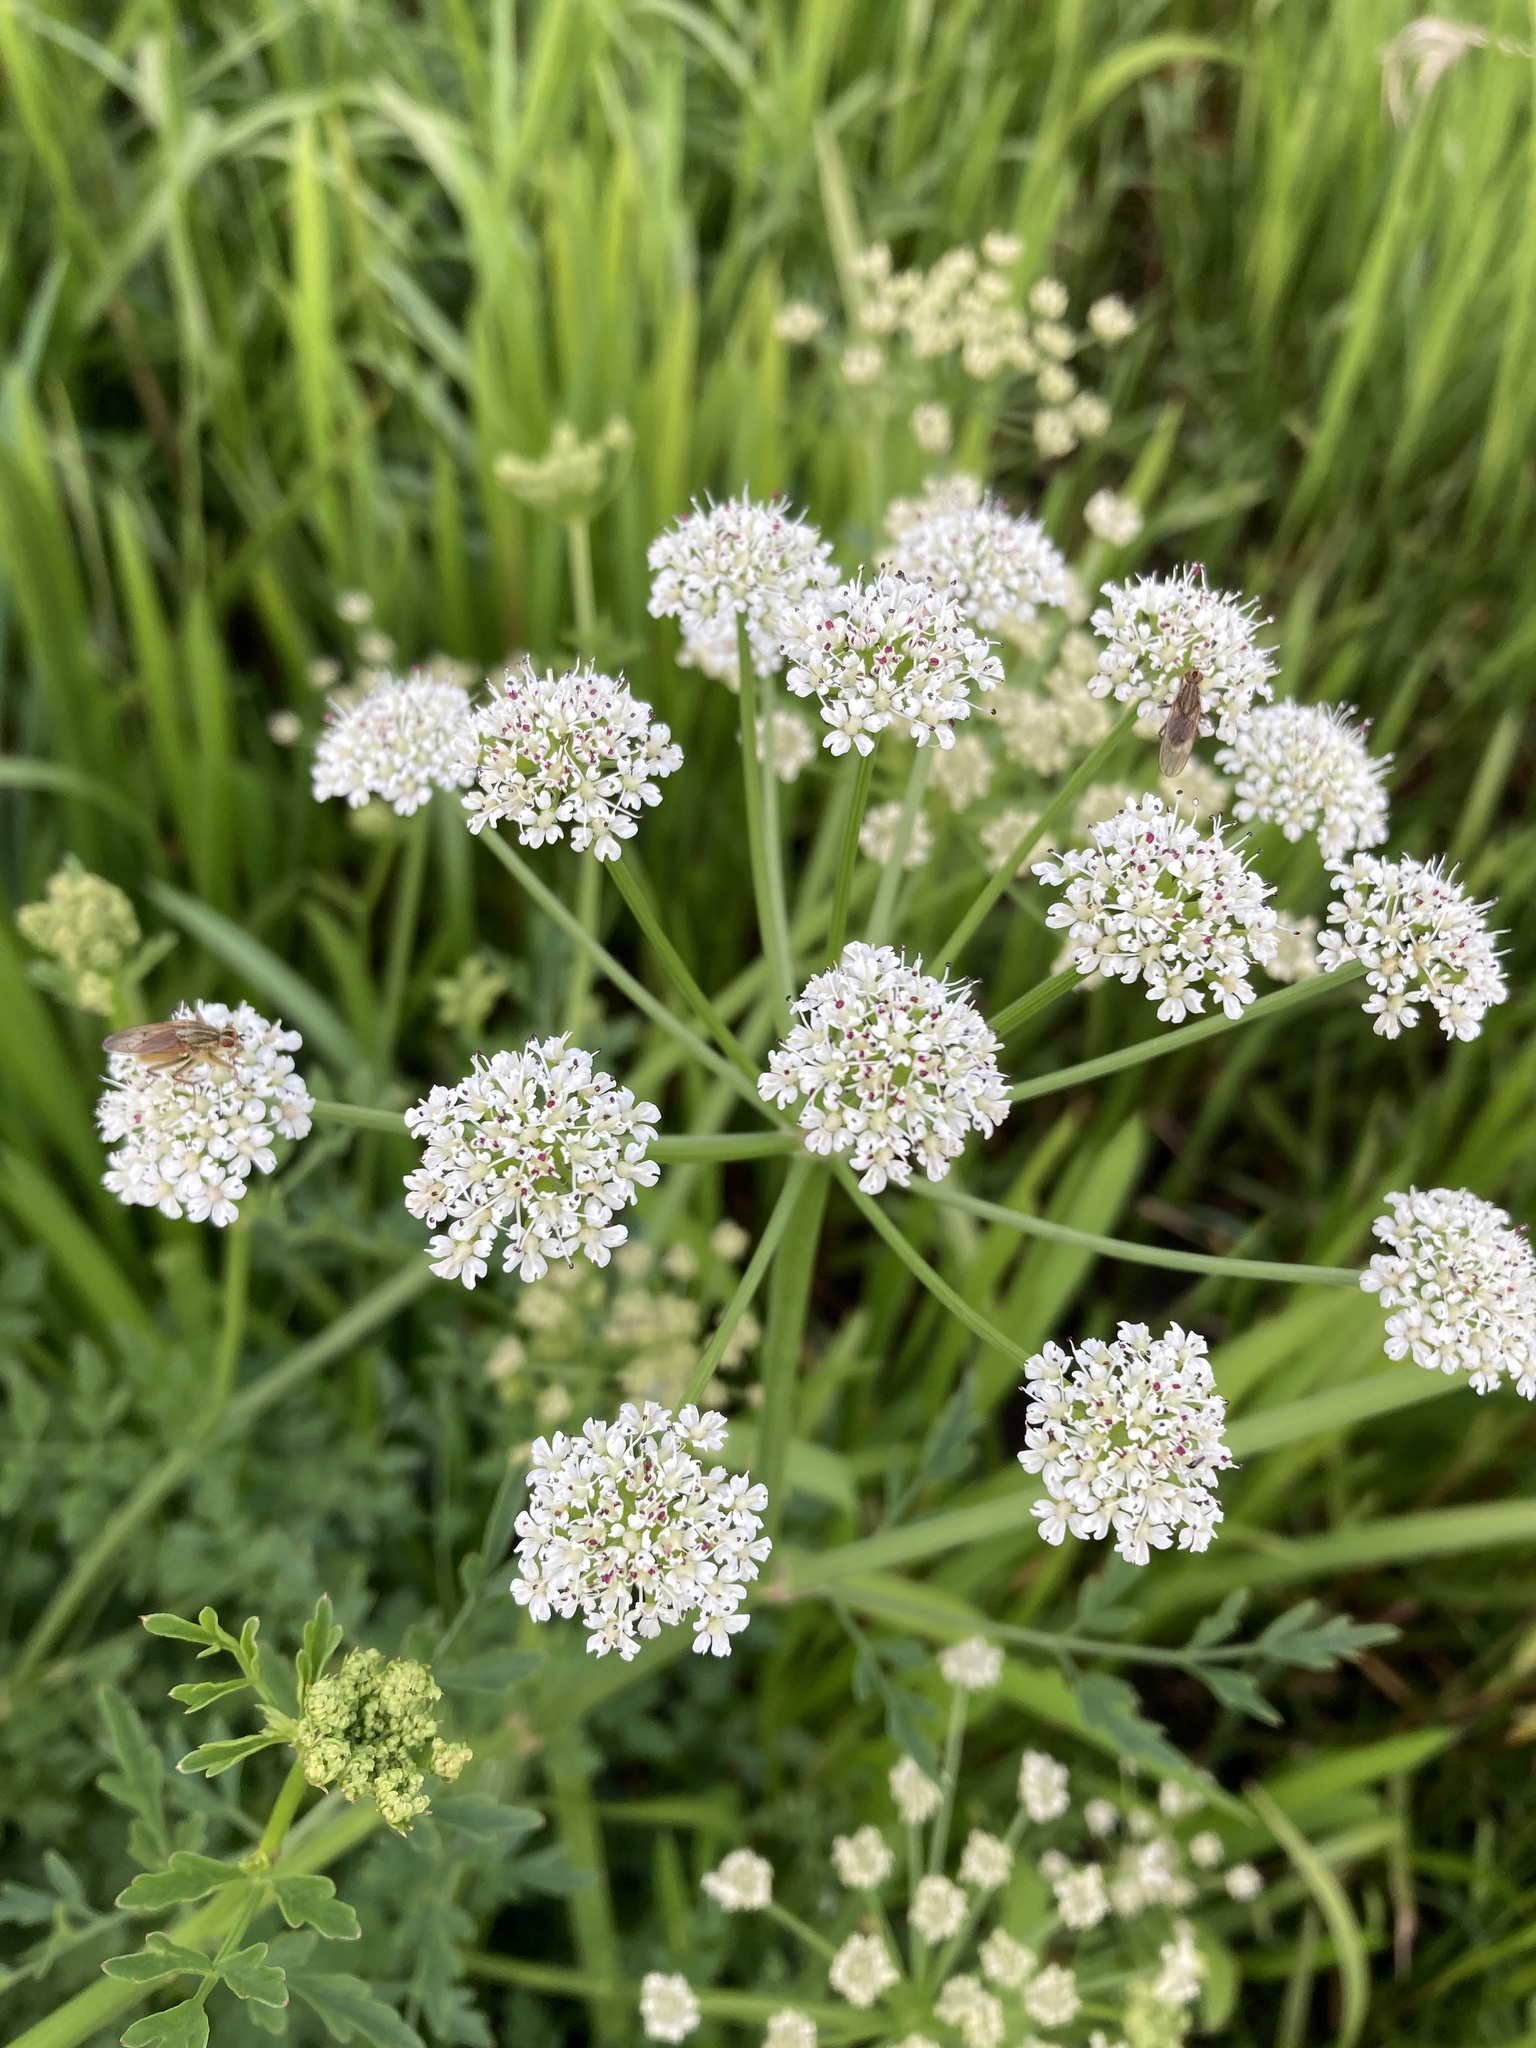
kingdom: Plantae
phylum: Tracheophyta
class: Magnoliopsida
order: Apiales
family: Apiaceae
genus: Oenanthe
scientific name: Oenanthe crocata
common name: Hemlock water-dropwort
